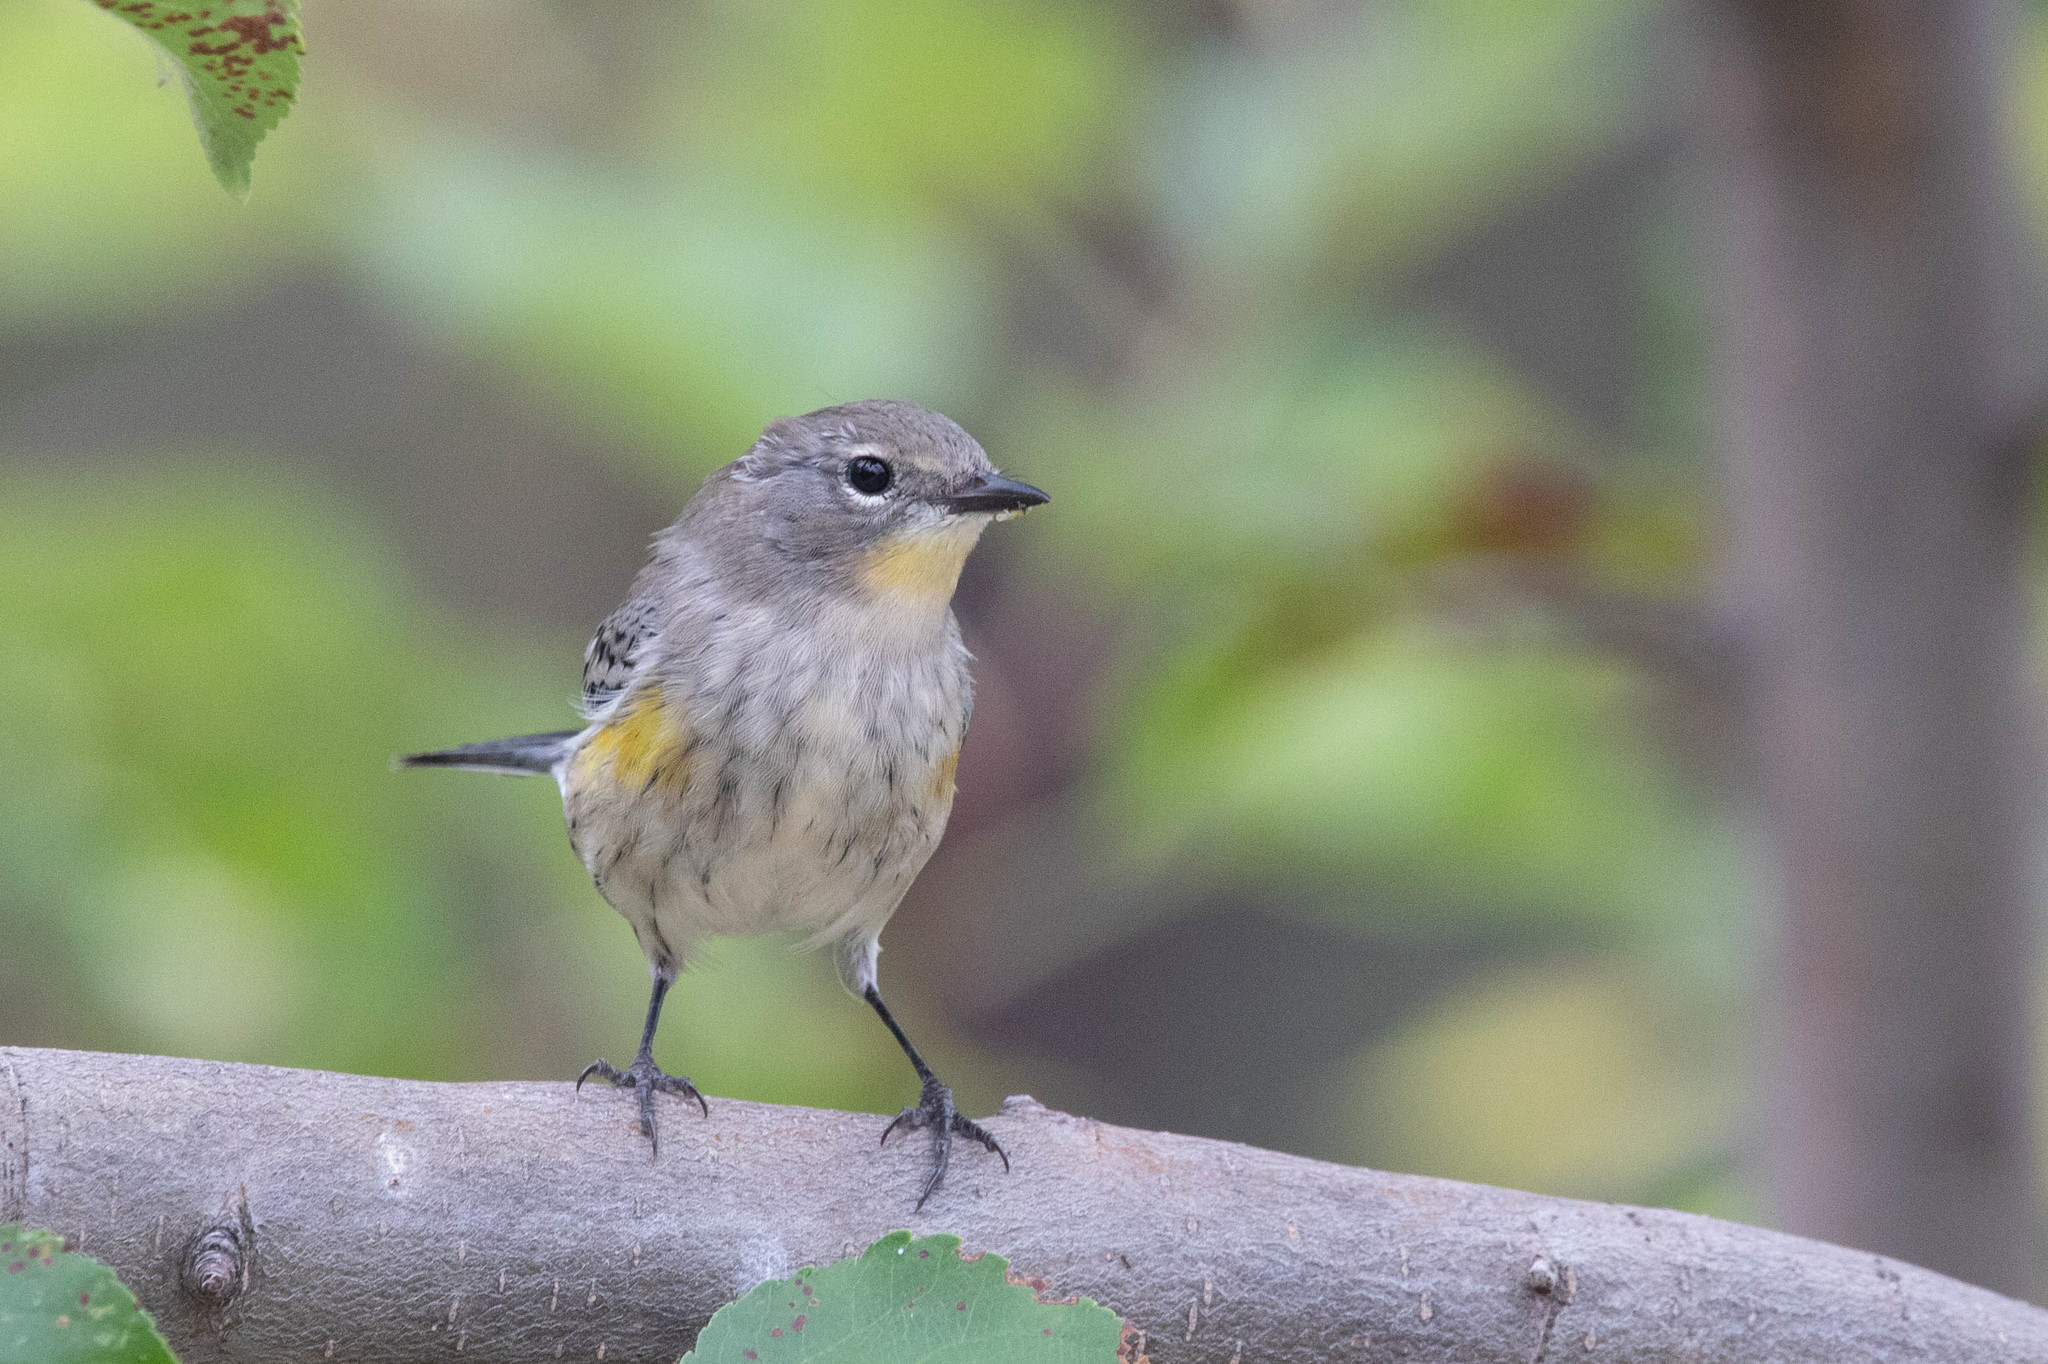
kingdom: Animalia
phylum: Chordata
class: Aves
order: Passeriformes
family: Parulidae
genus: Setophaga
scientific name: Setophaga auduboni
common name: Audubon's warbler
